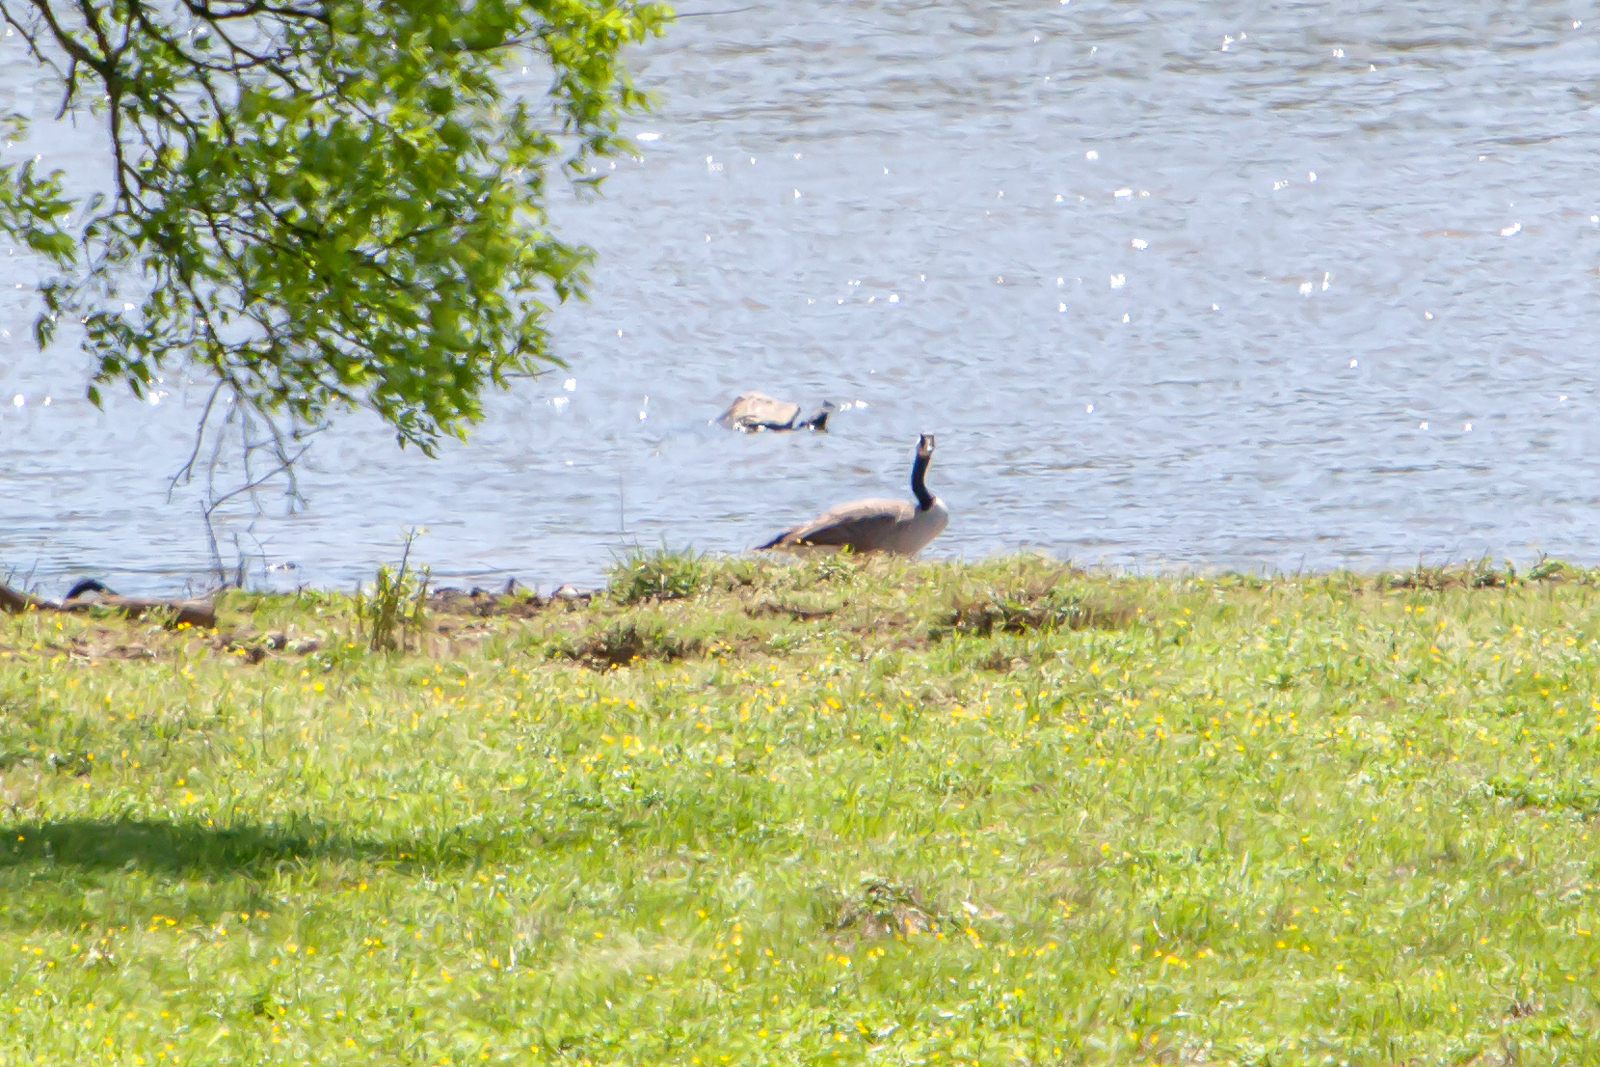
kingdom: Animalia
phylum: Chordata
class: Aves
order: Anseriformes
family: Anatidae
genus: Branta
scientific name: Branta canadensis
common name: Canada goose
